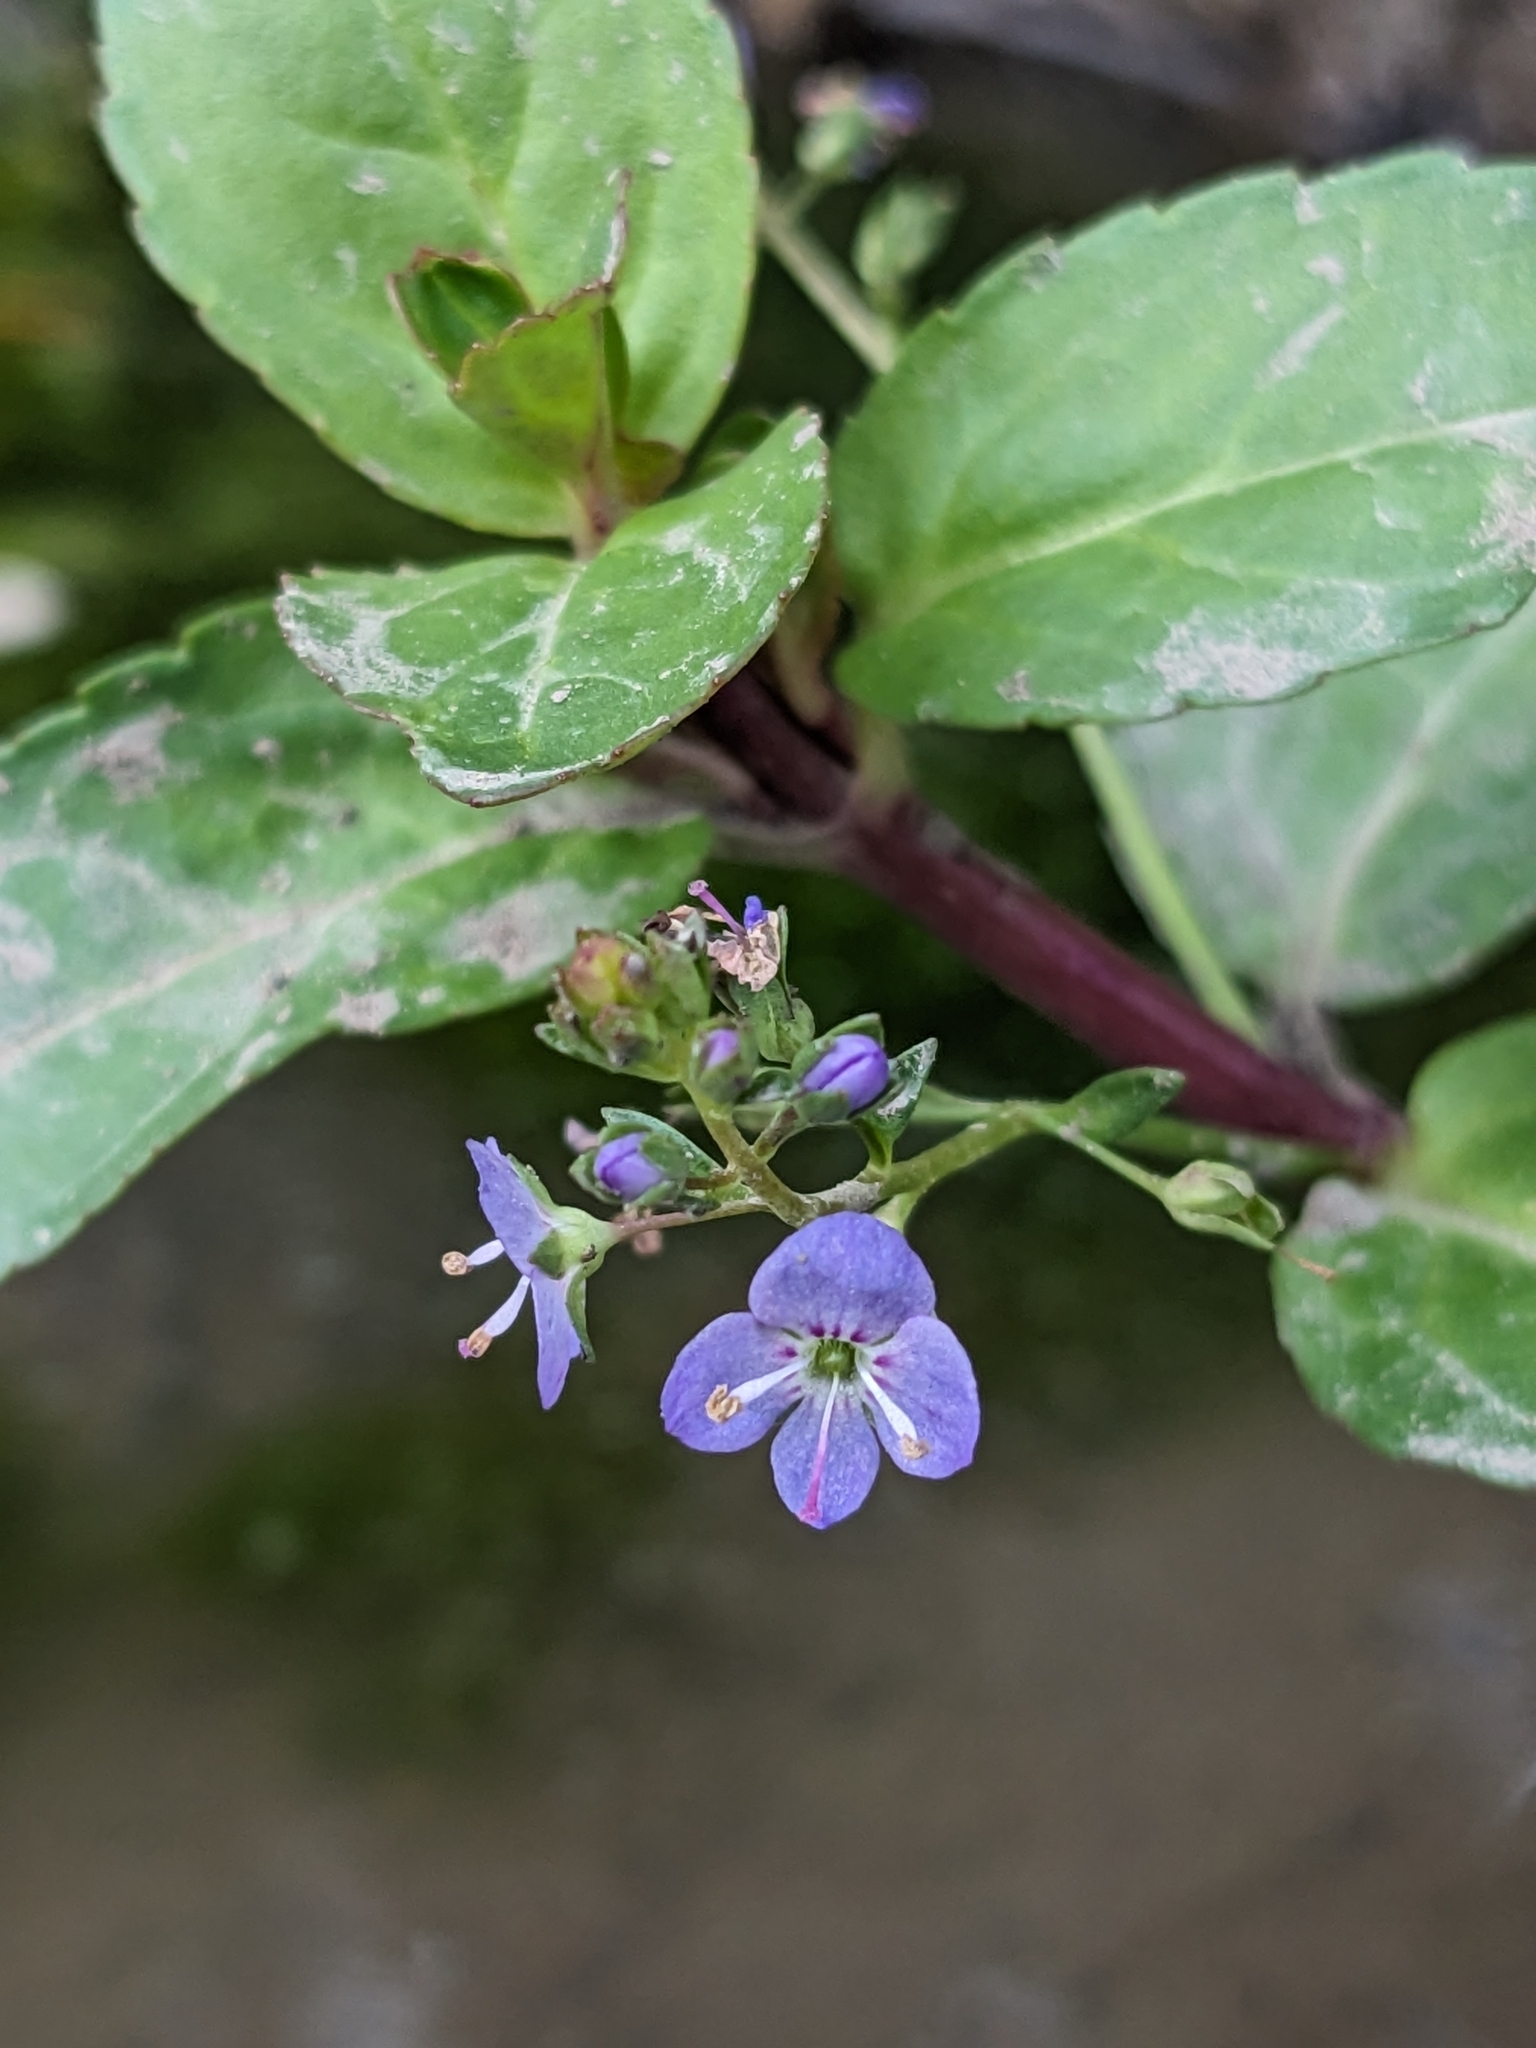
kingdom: Plantae
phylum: Tracheophyta
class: Magnoliopsida
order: Lamiales
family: Plantaginaceae
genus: Veronica
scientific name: Veronica americana
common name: American brooklime
